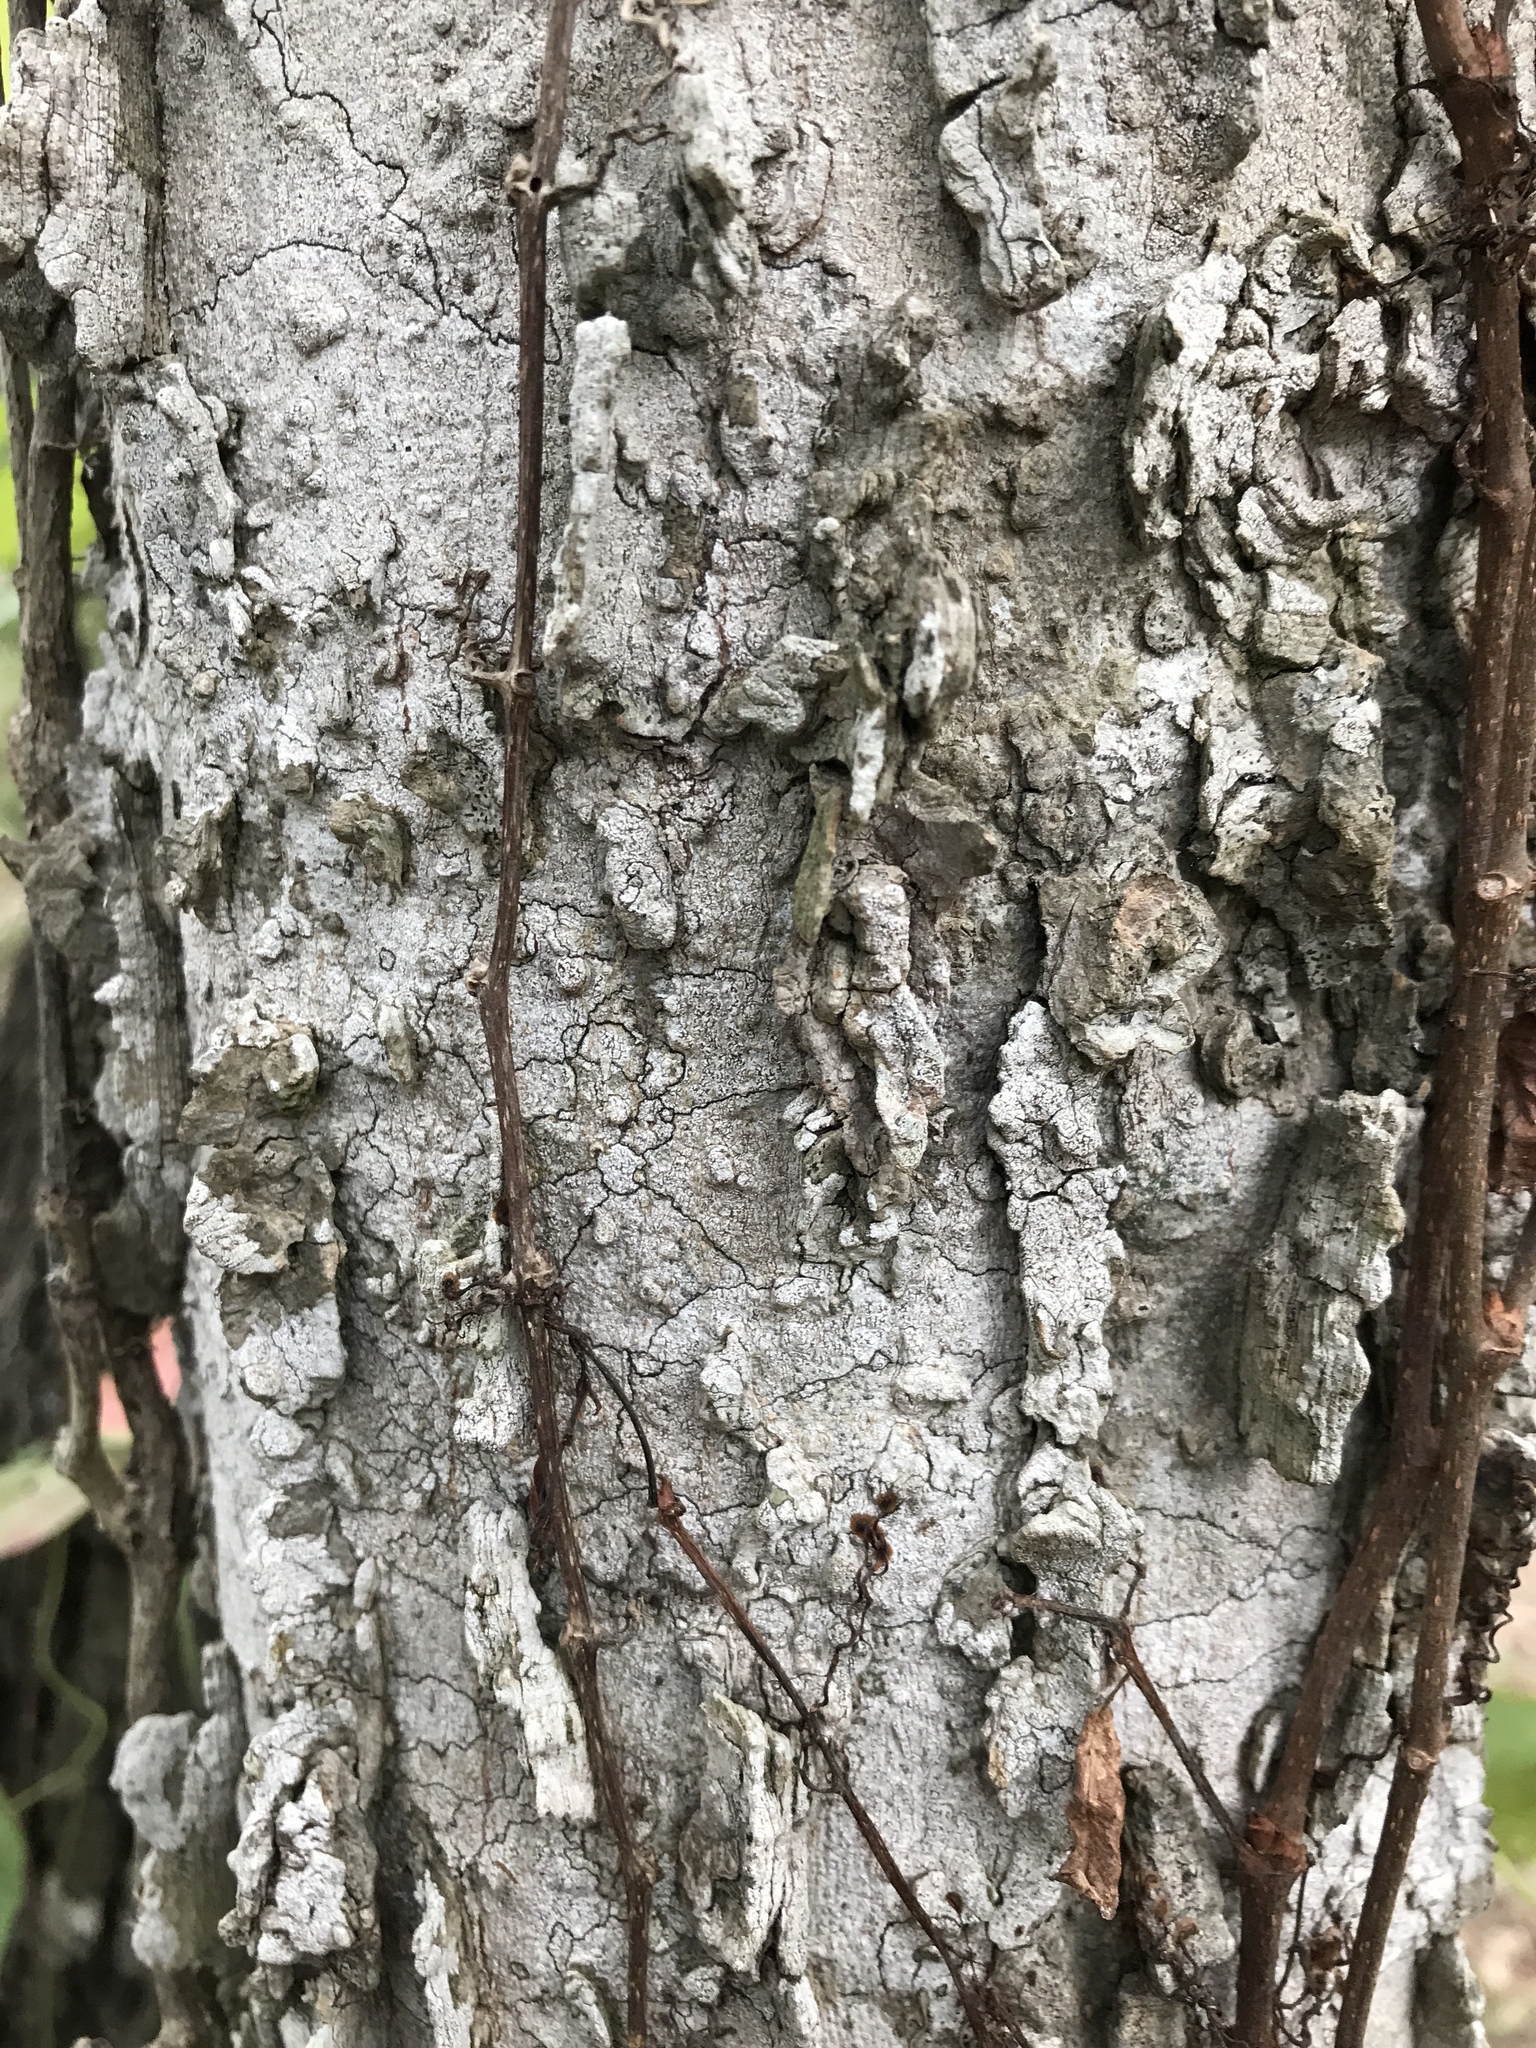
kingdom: Plantae
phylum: Tracheophyta
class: Magnoliopsida
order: Rosales
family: Cannabaceae
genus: Celtis
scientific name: Celtis laevigata
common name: Sugarberry
